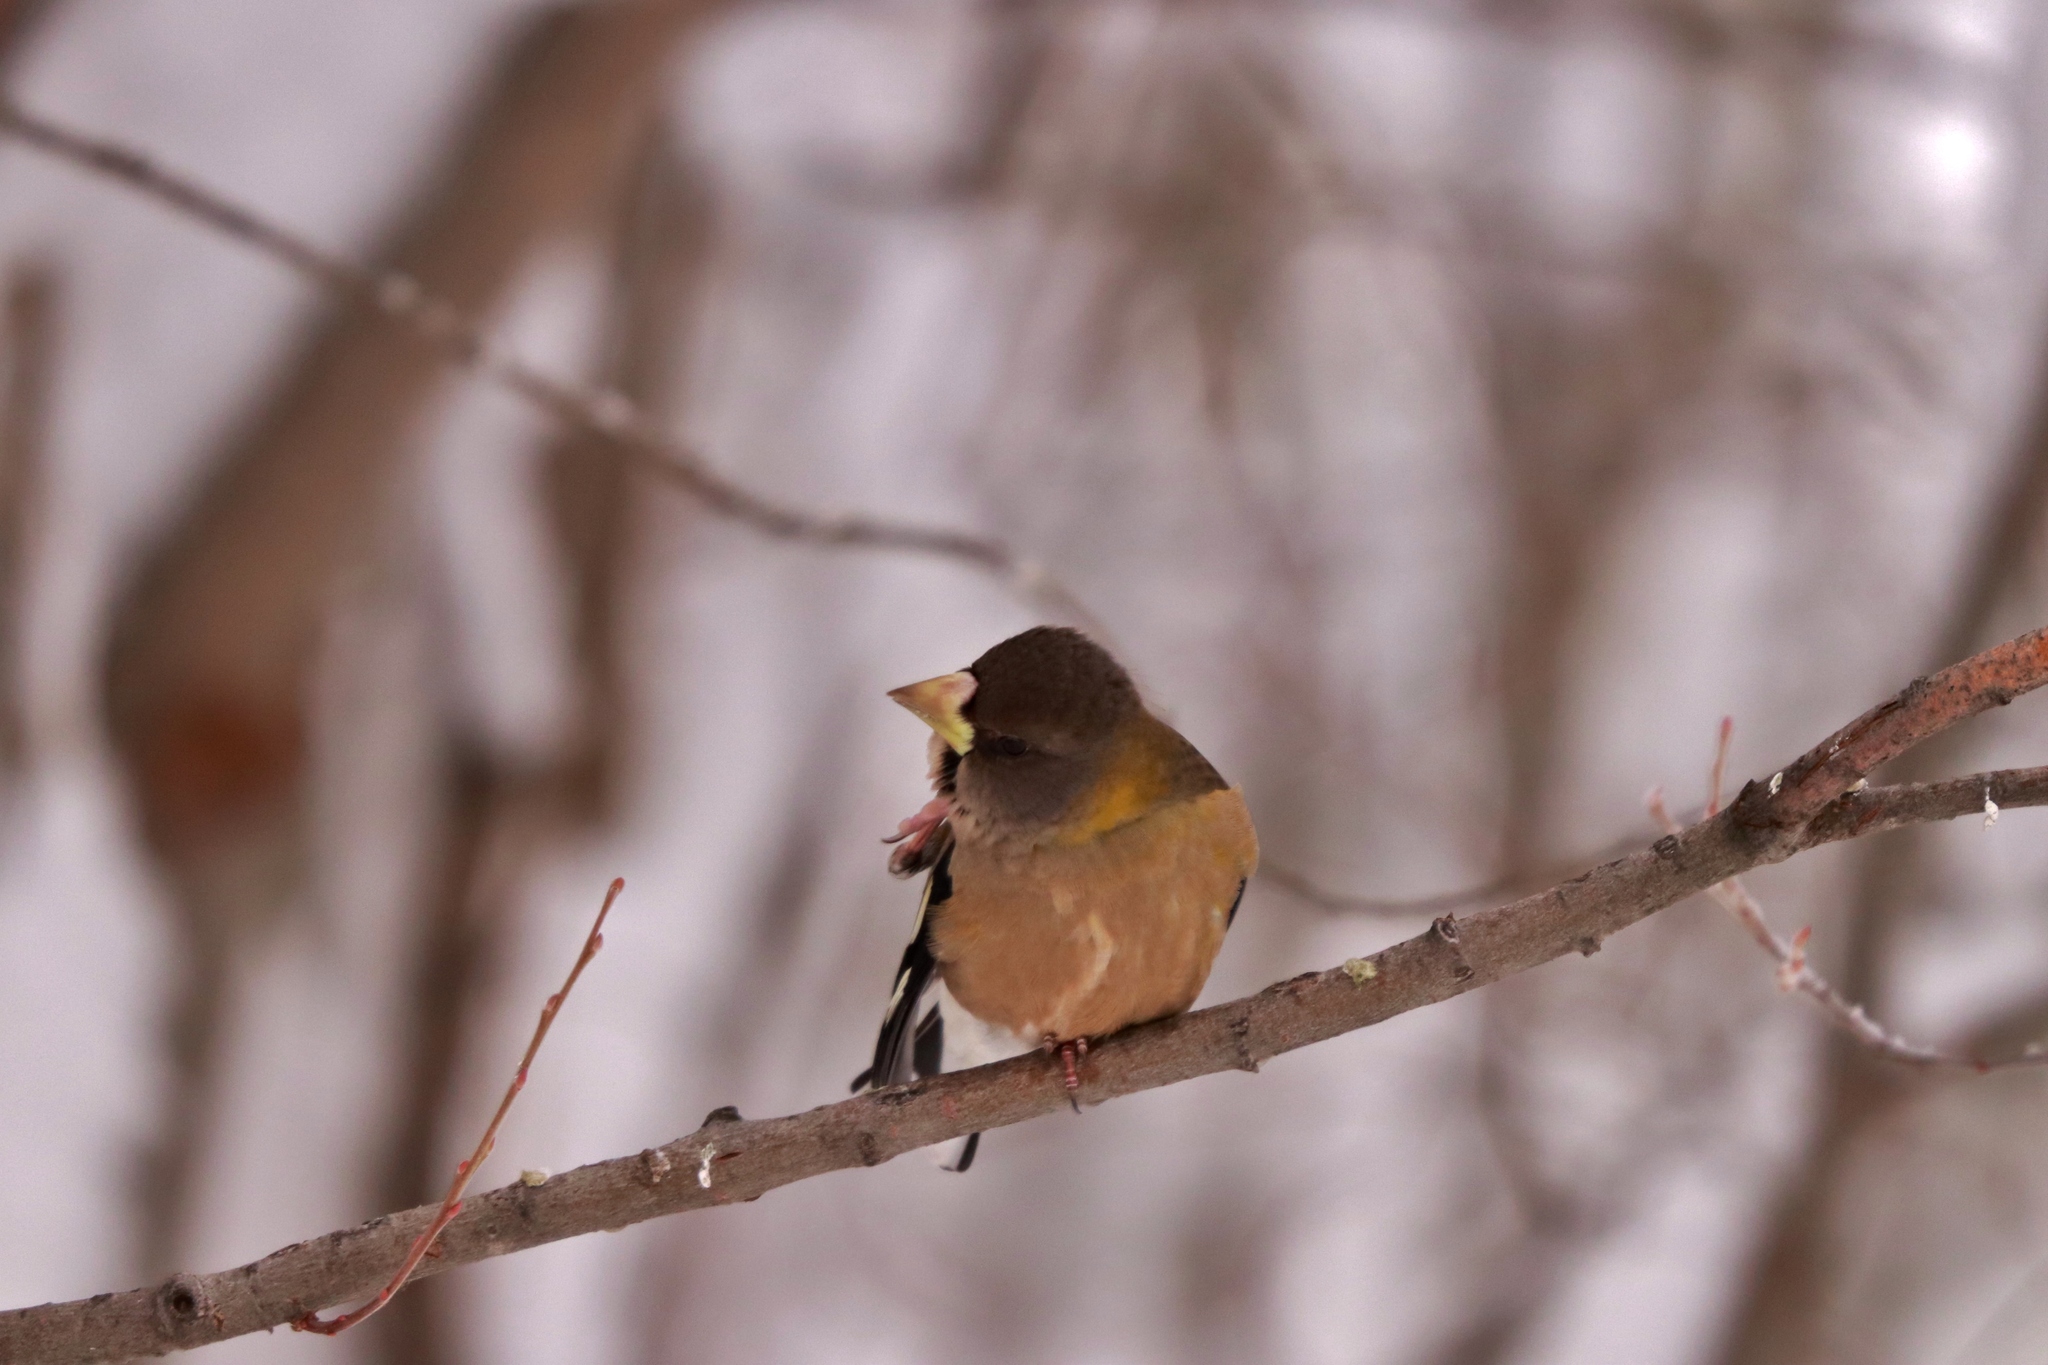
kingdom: Animalia
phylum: Chordata
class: Aves
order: Passeriformes
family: Fringillidae
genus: Hesperiphona
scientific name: Hesperiphona vespertina
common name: Evening grosbeak
